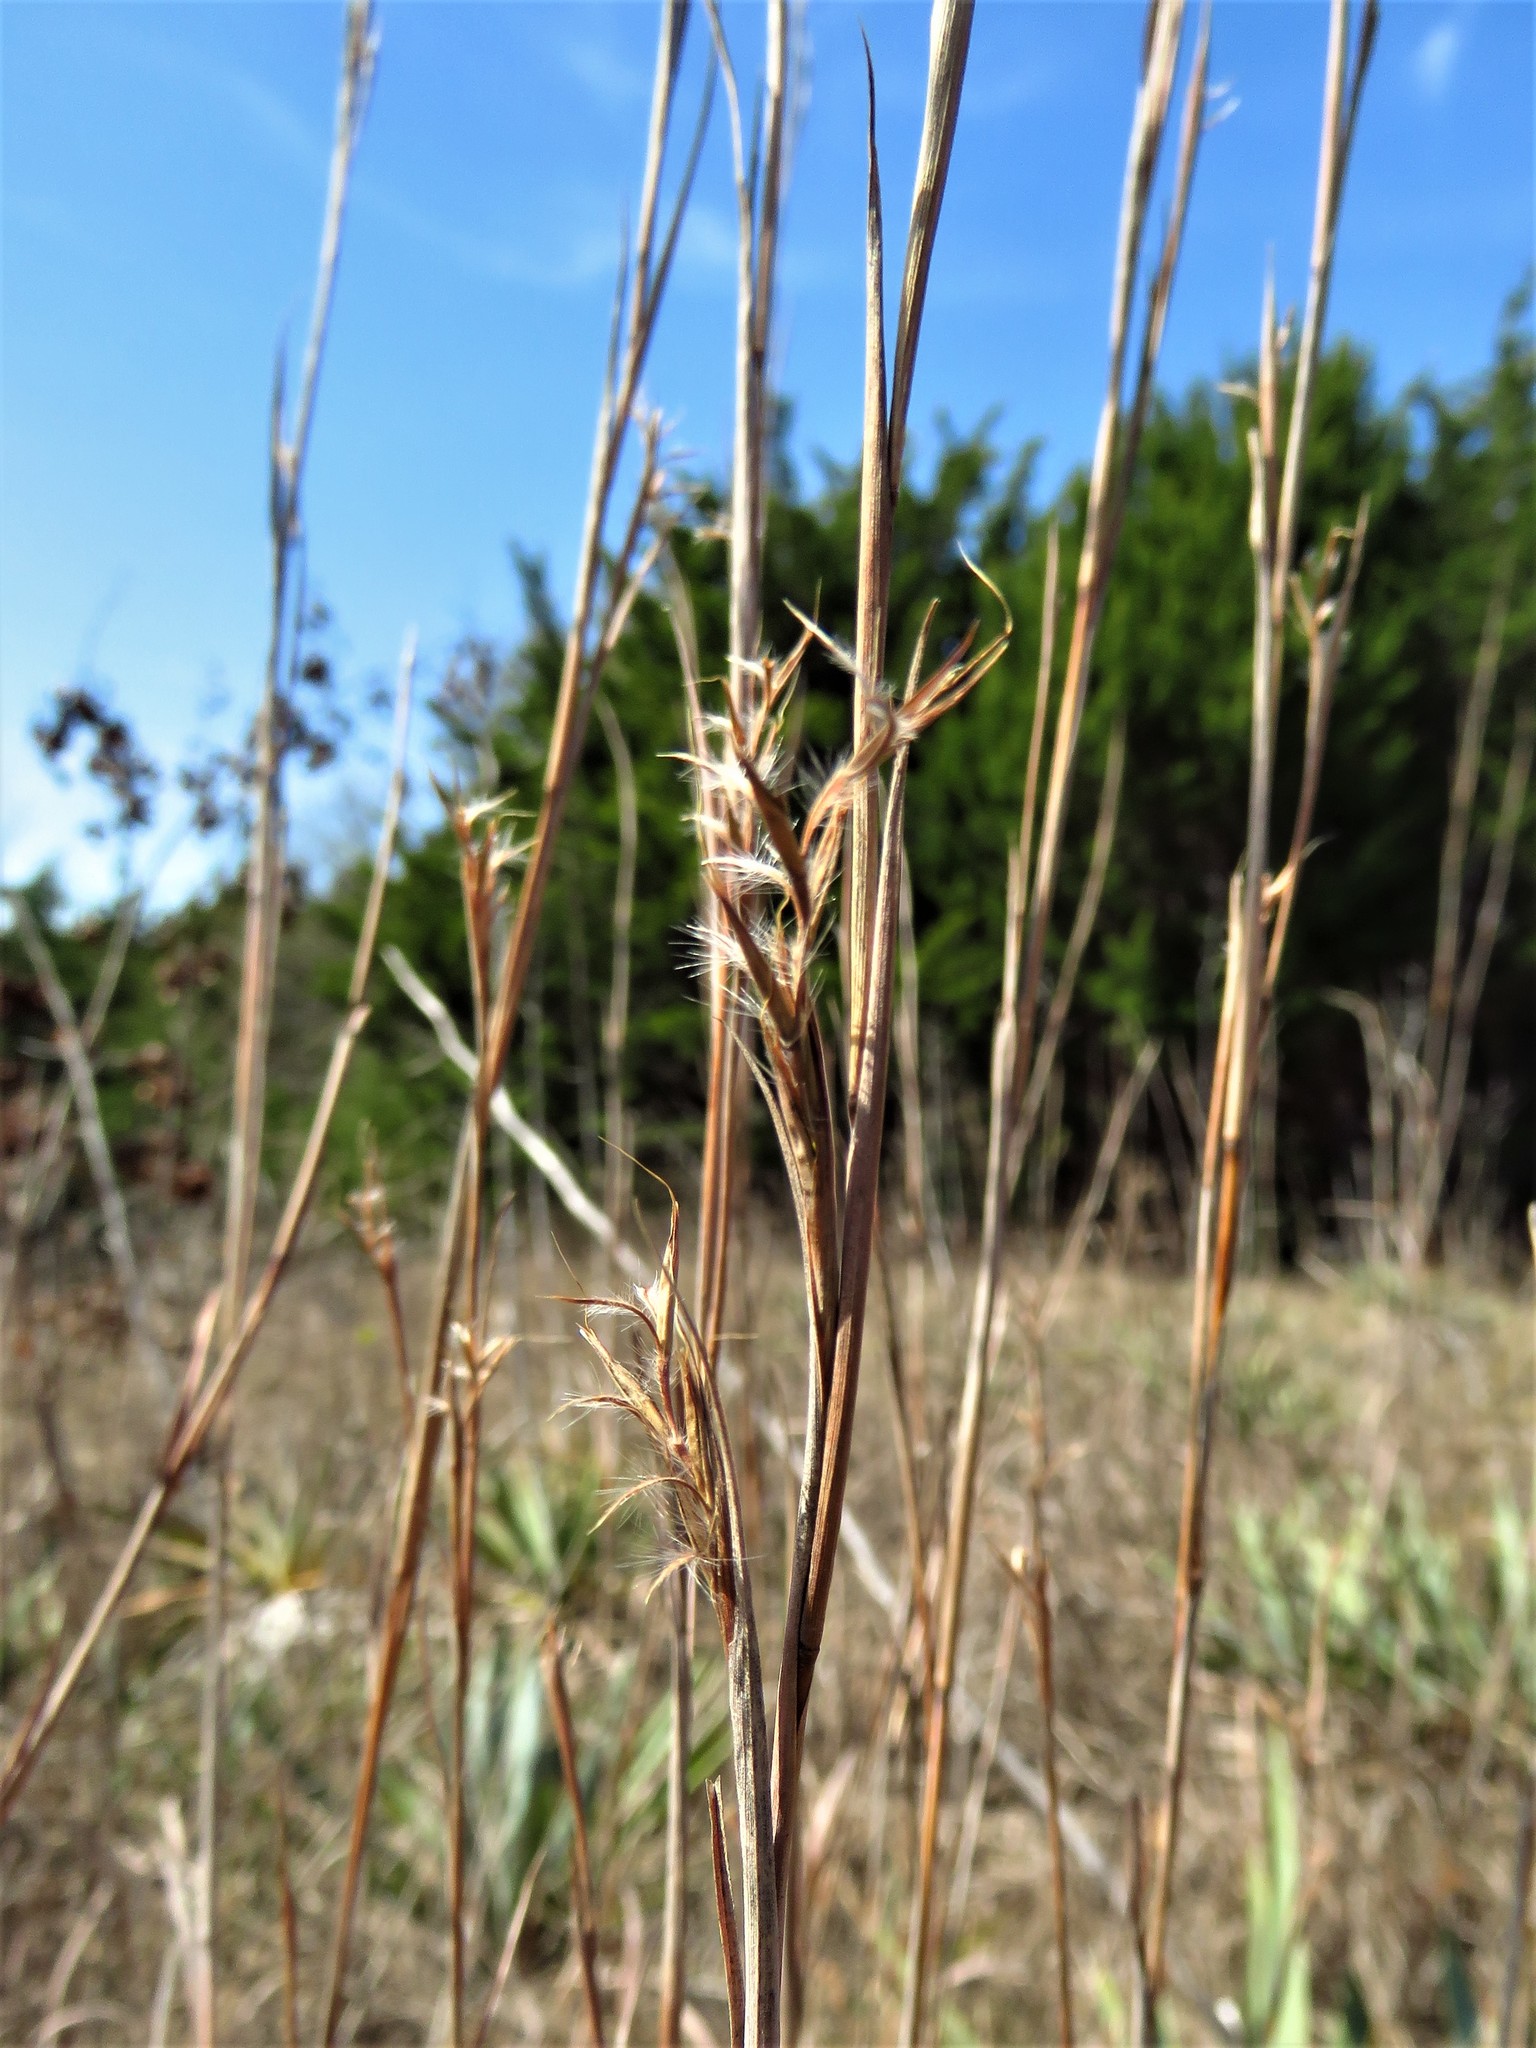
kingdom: Plantae
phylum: Tracheophyta
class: Liliopsida
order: Poales
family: Poaceae
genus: Schizachyrium
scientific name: Schizachyrium scoparium
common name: Little bluestem
